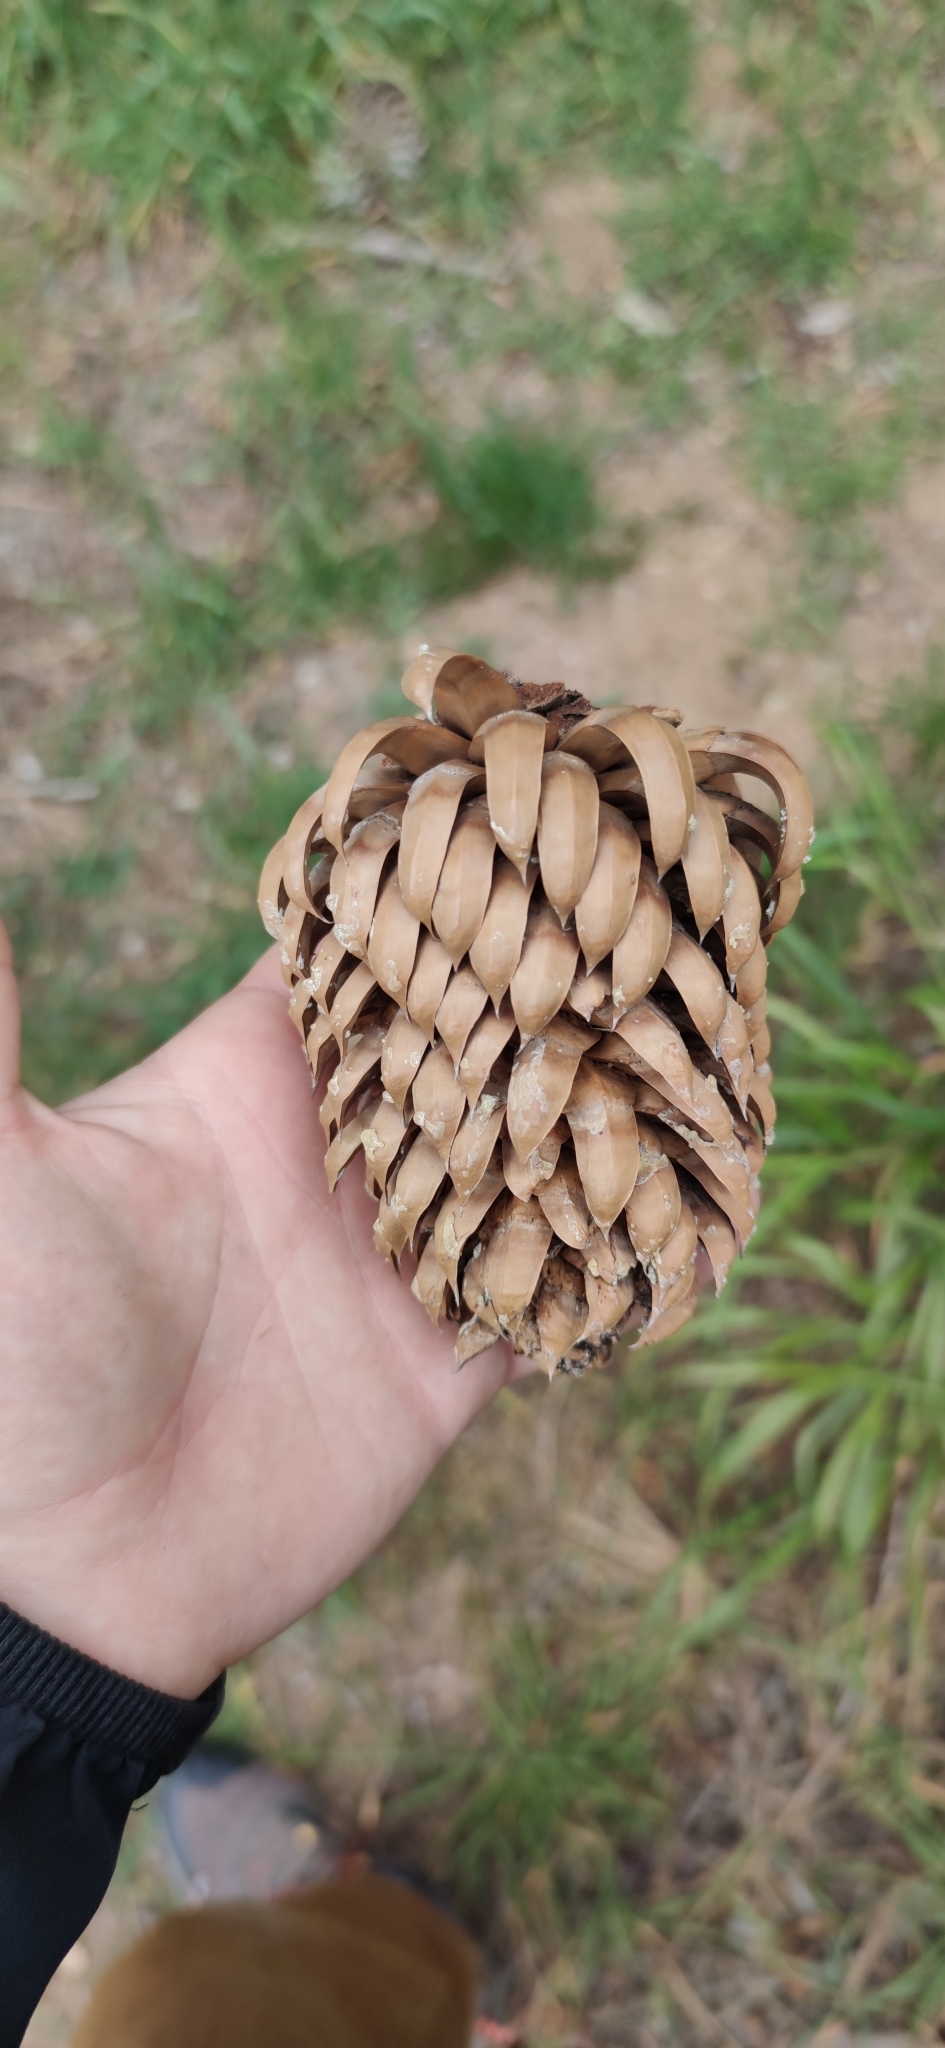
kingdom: Plantae
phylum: Tracheophyta
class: Pinopsida
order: Pinales
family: Pinaceae
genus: Pinus
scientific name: Pinus coulteri
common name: Coulter pine
